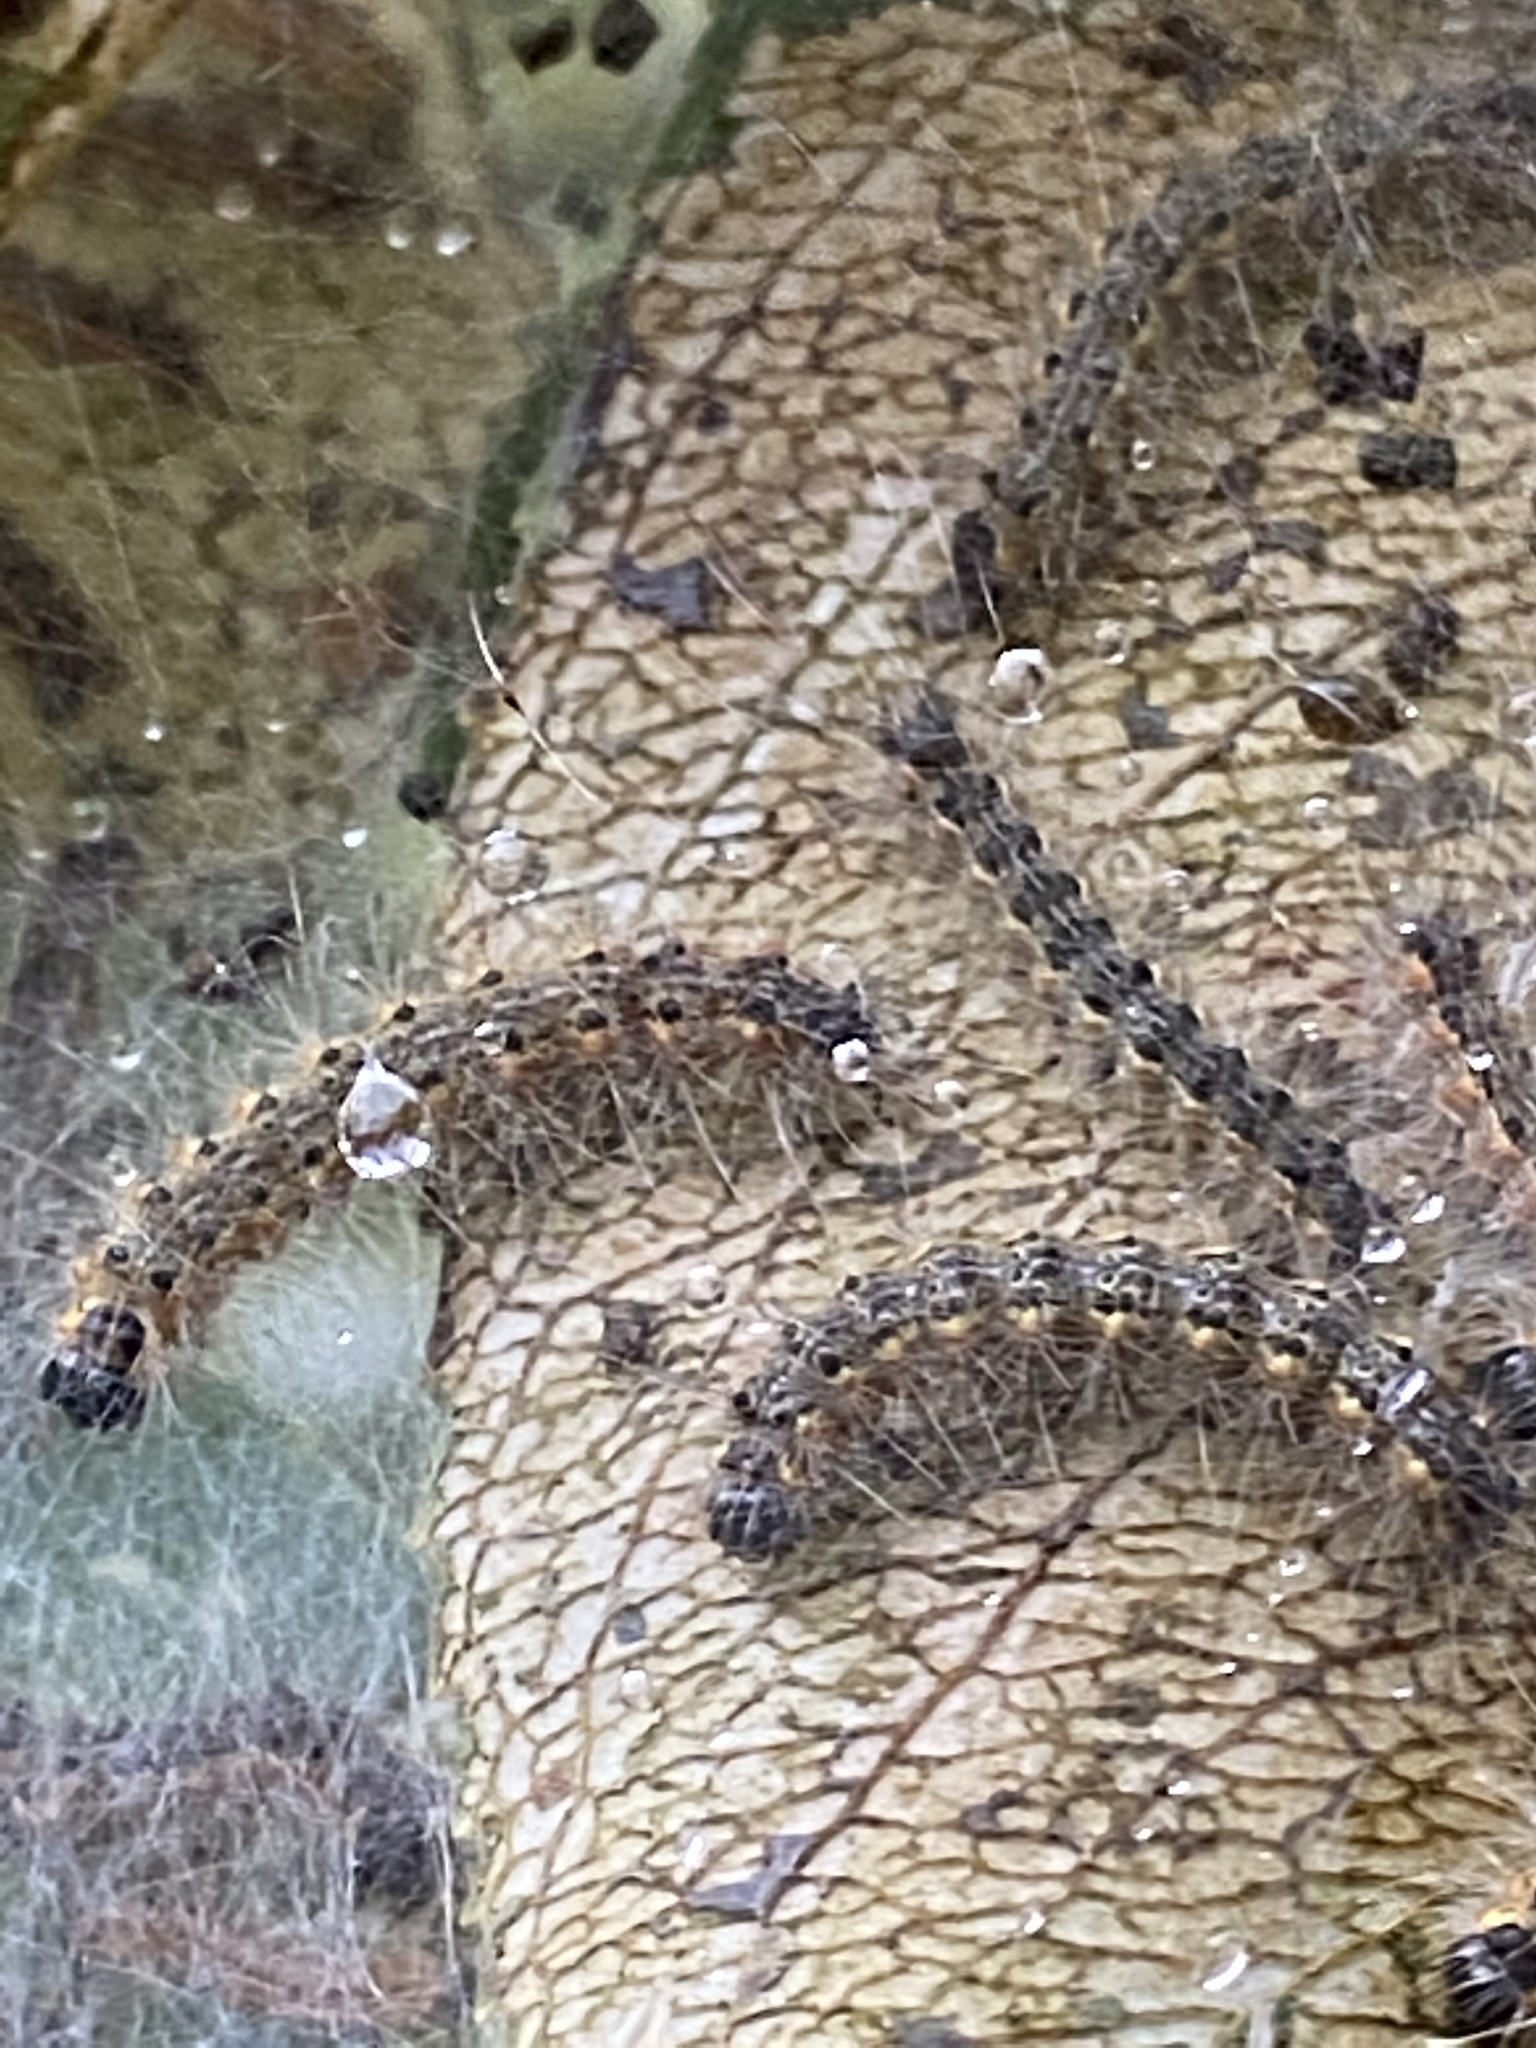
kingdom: Animalia
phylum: Arthropoda
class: Insecta
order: Lepidoptera
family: Erebidae
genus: Hyphantria
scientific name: Hyphantria cunea
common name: American white moth
